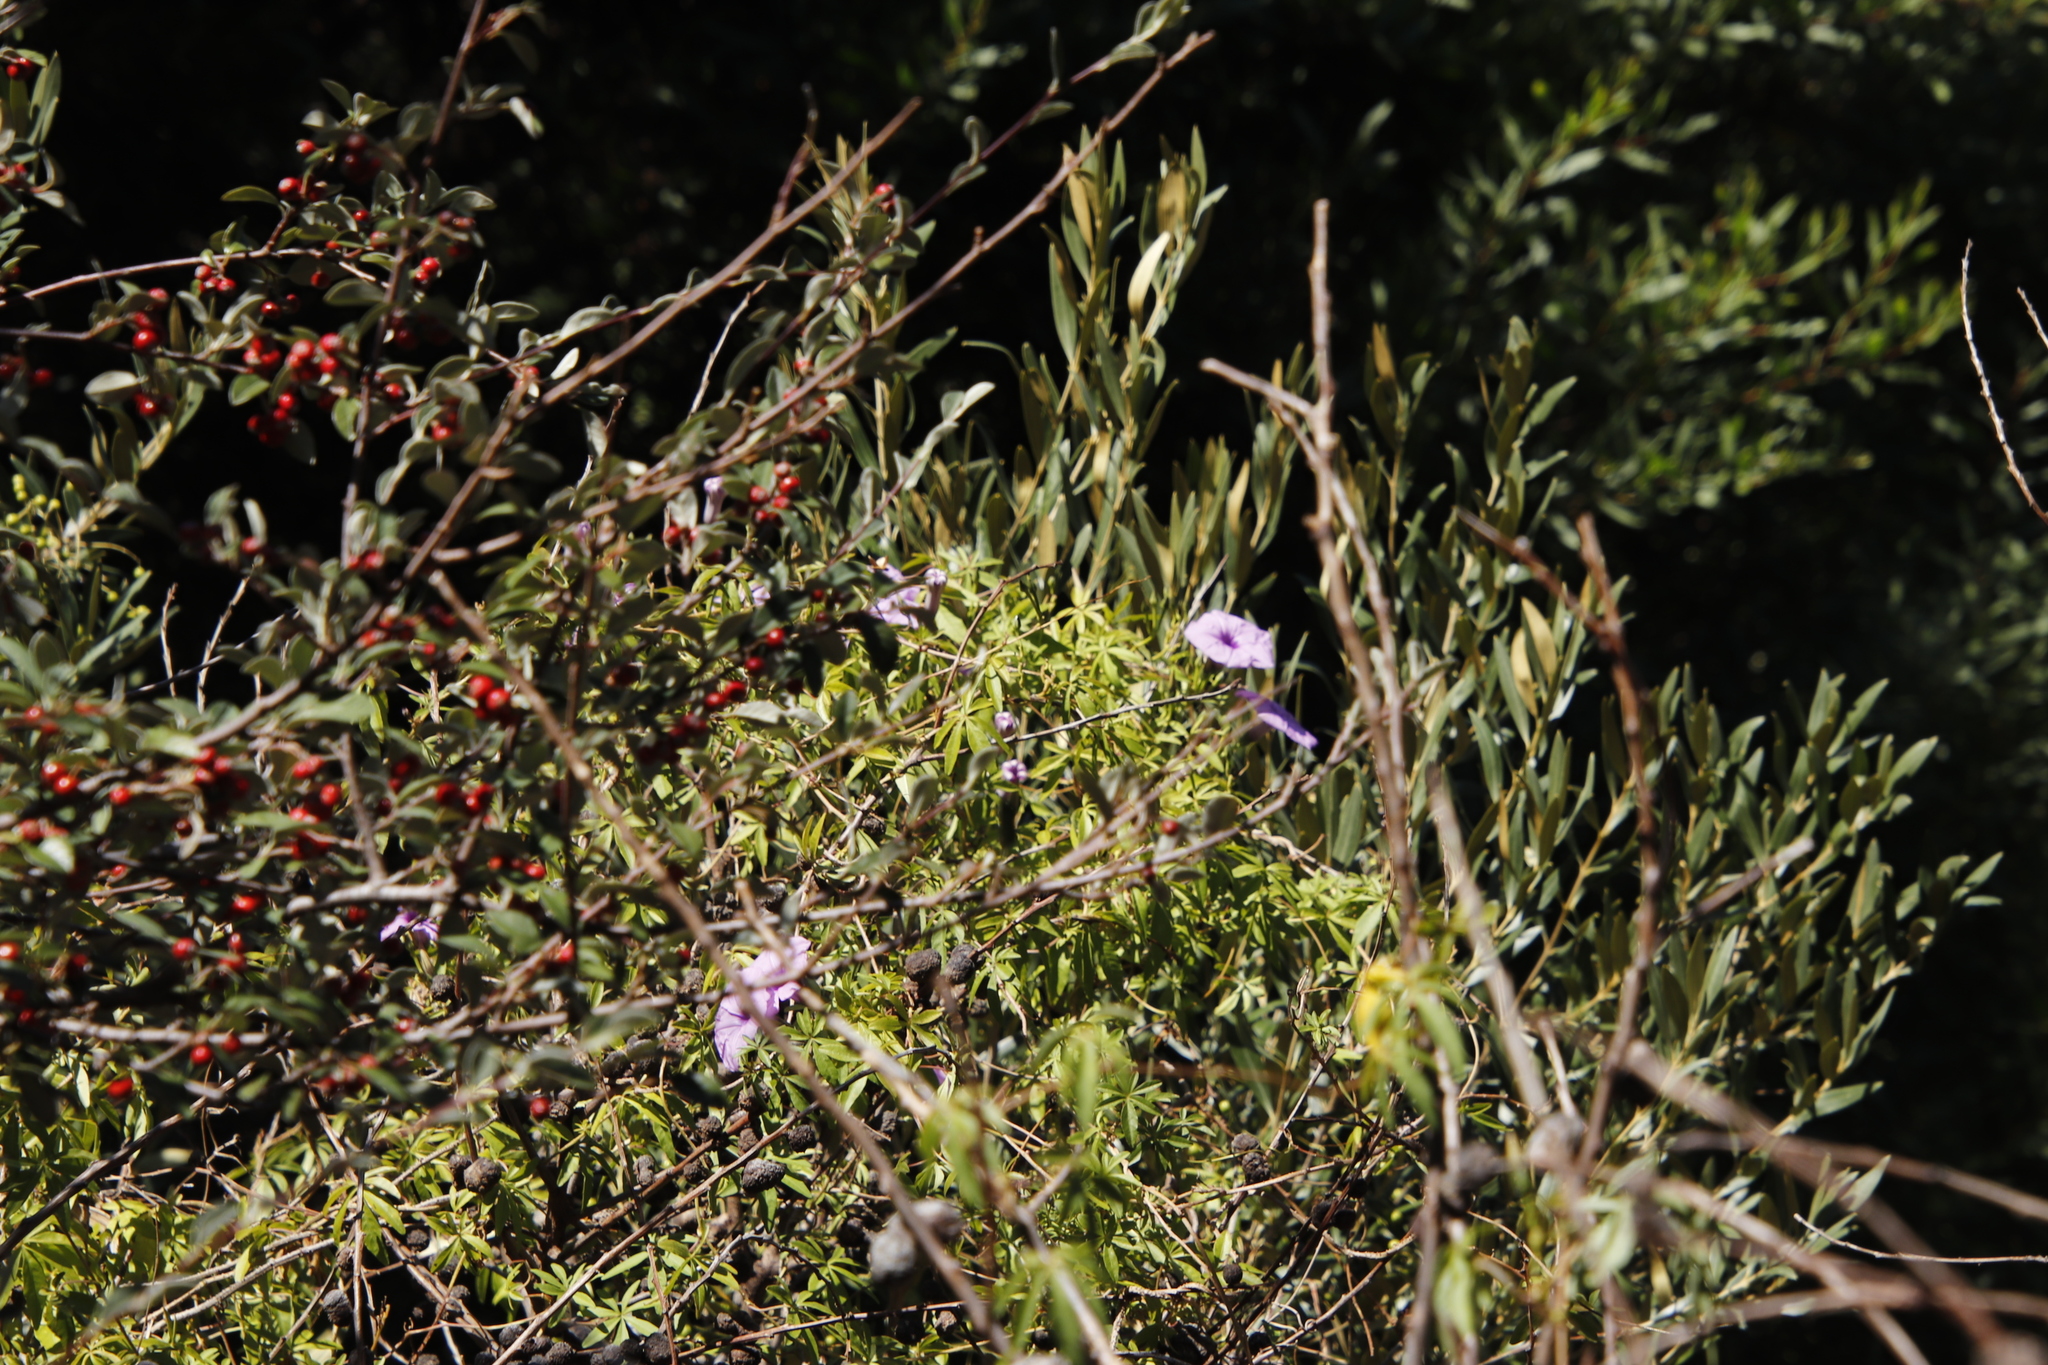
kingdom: Plantae
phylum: Tracheophyta
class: Magnoliopsida
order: Solanales
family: Convolvulaceae
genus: Ipomoea
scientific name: Ipomoea cairica
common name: Mile a minute vine
